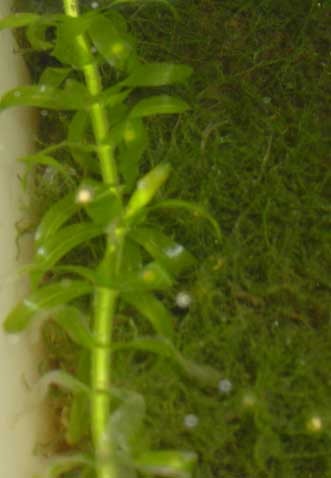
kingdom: Animalia
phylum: Chordata
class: Amphibia
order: Caudata
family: Salamandridae
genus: Ommatotriton
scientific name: Ommatotriton ophryticus
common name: Northern banded newt
